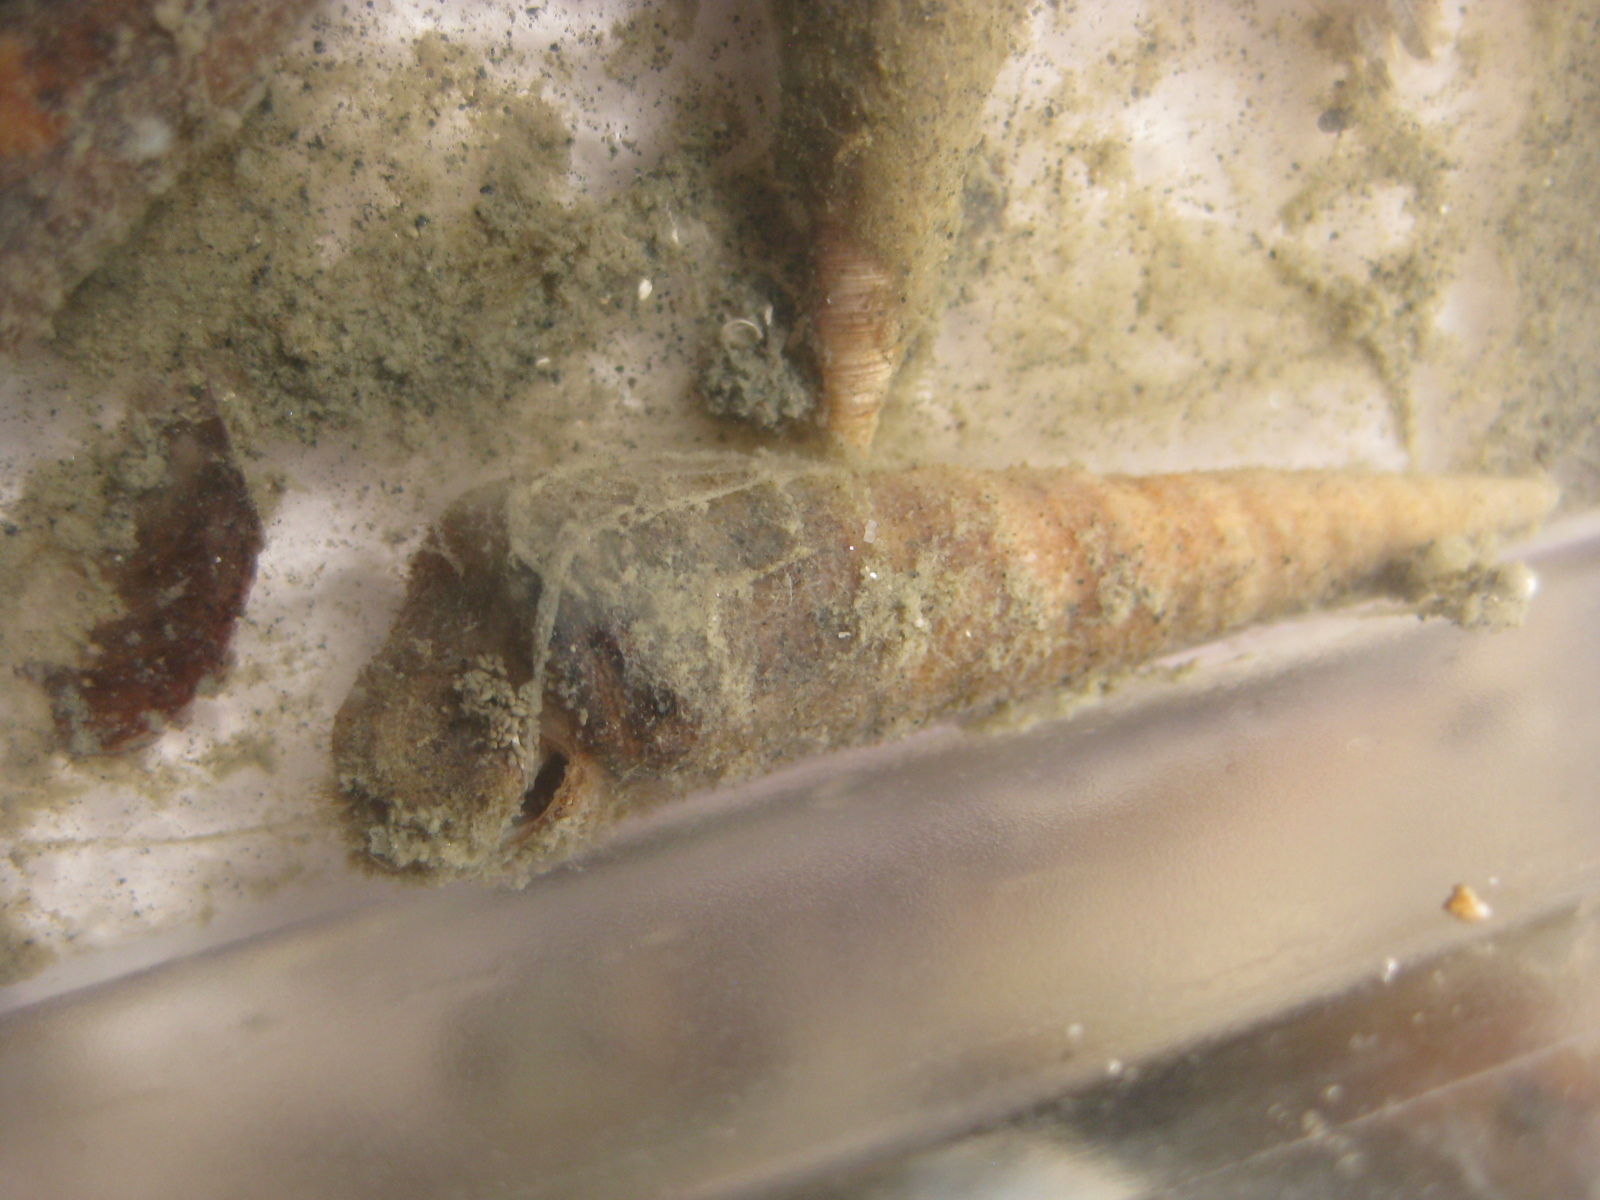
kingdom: Animalia
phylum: Mollusca
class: Gastropoda
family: Turritellidae
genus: Maoricolpus
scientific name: Maoricolpus roseus
